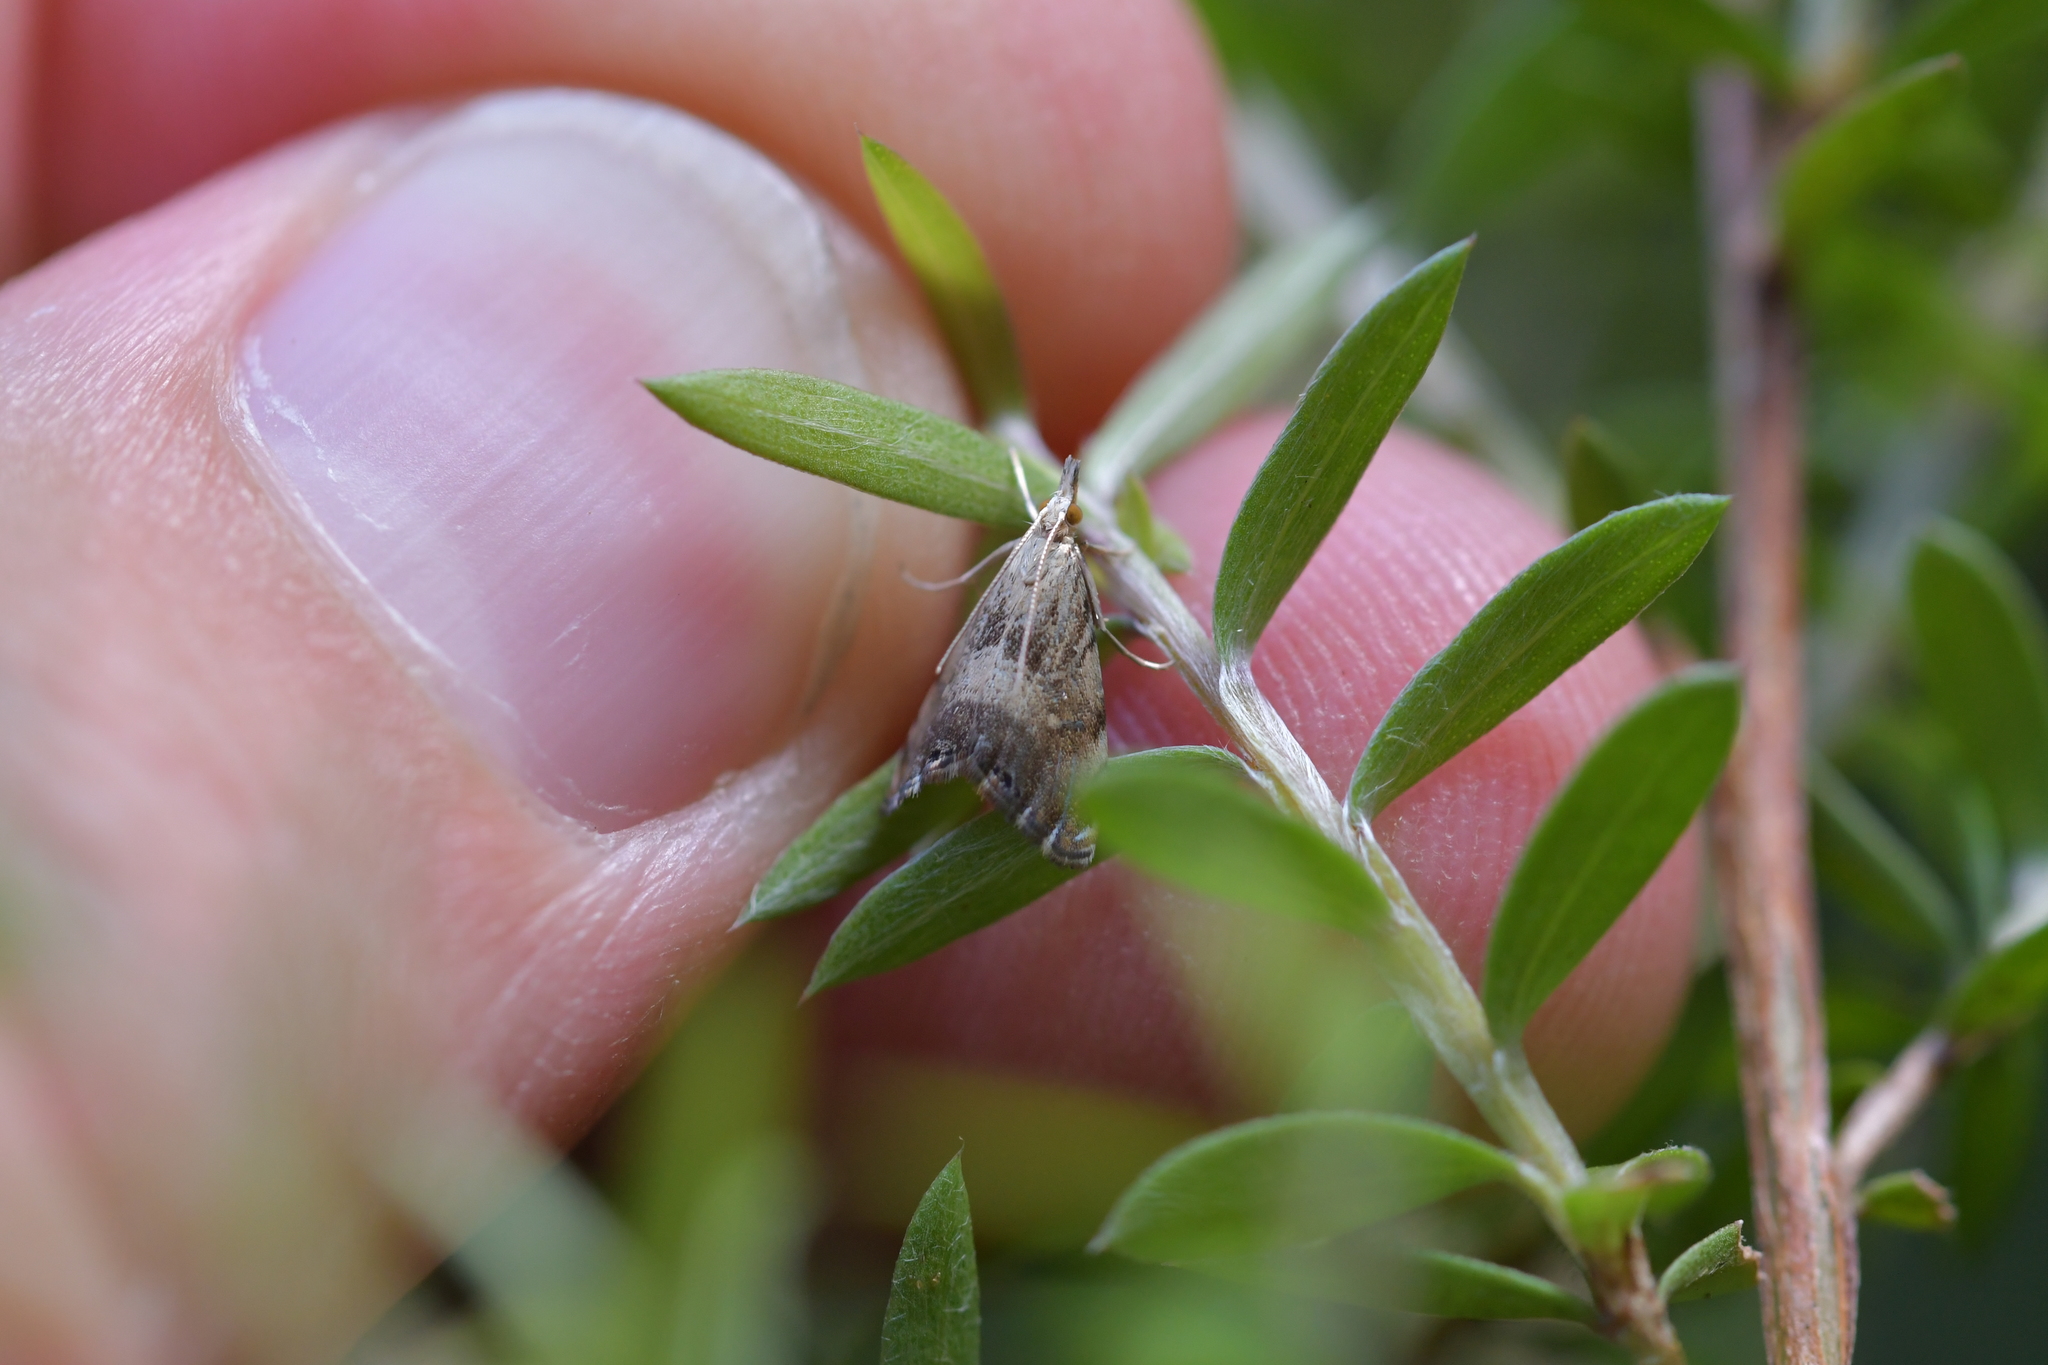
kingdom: Animalia
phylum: Arthropoda
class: Insecta
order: Lepidoptera
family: Crambidae
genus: Glaucocharis
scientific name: Glaucocharis harmonica
